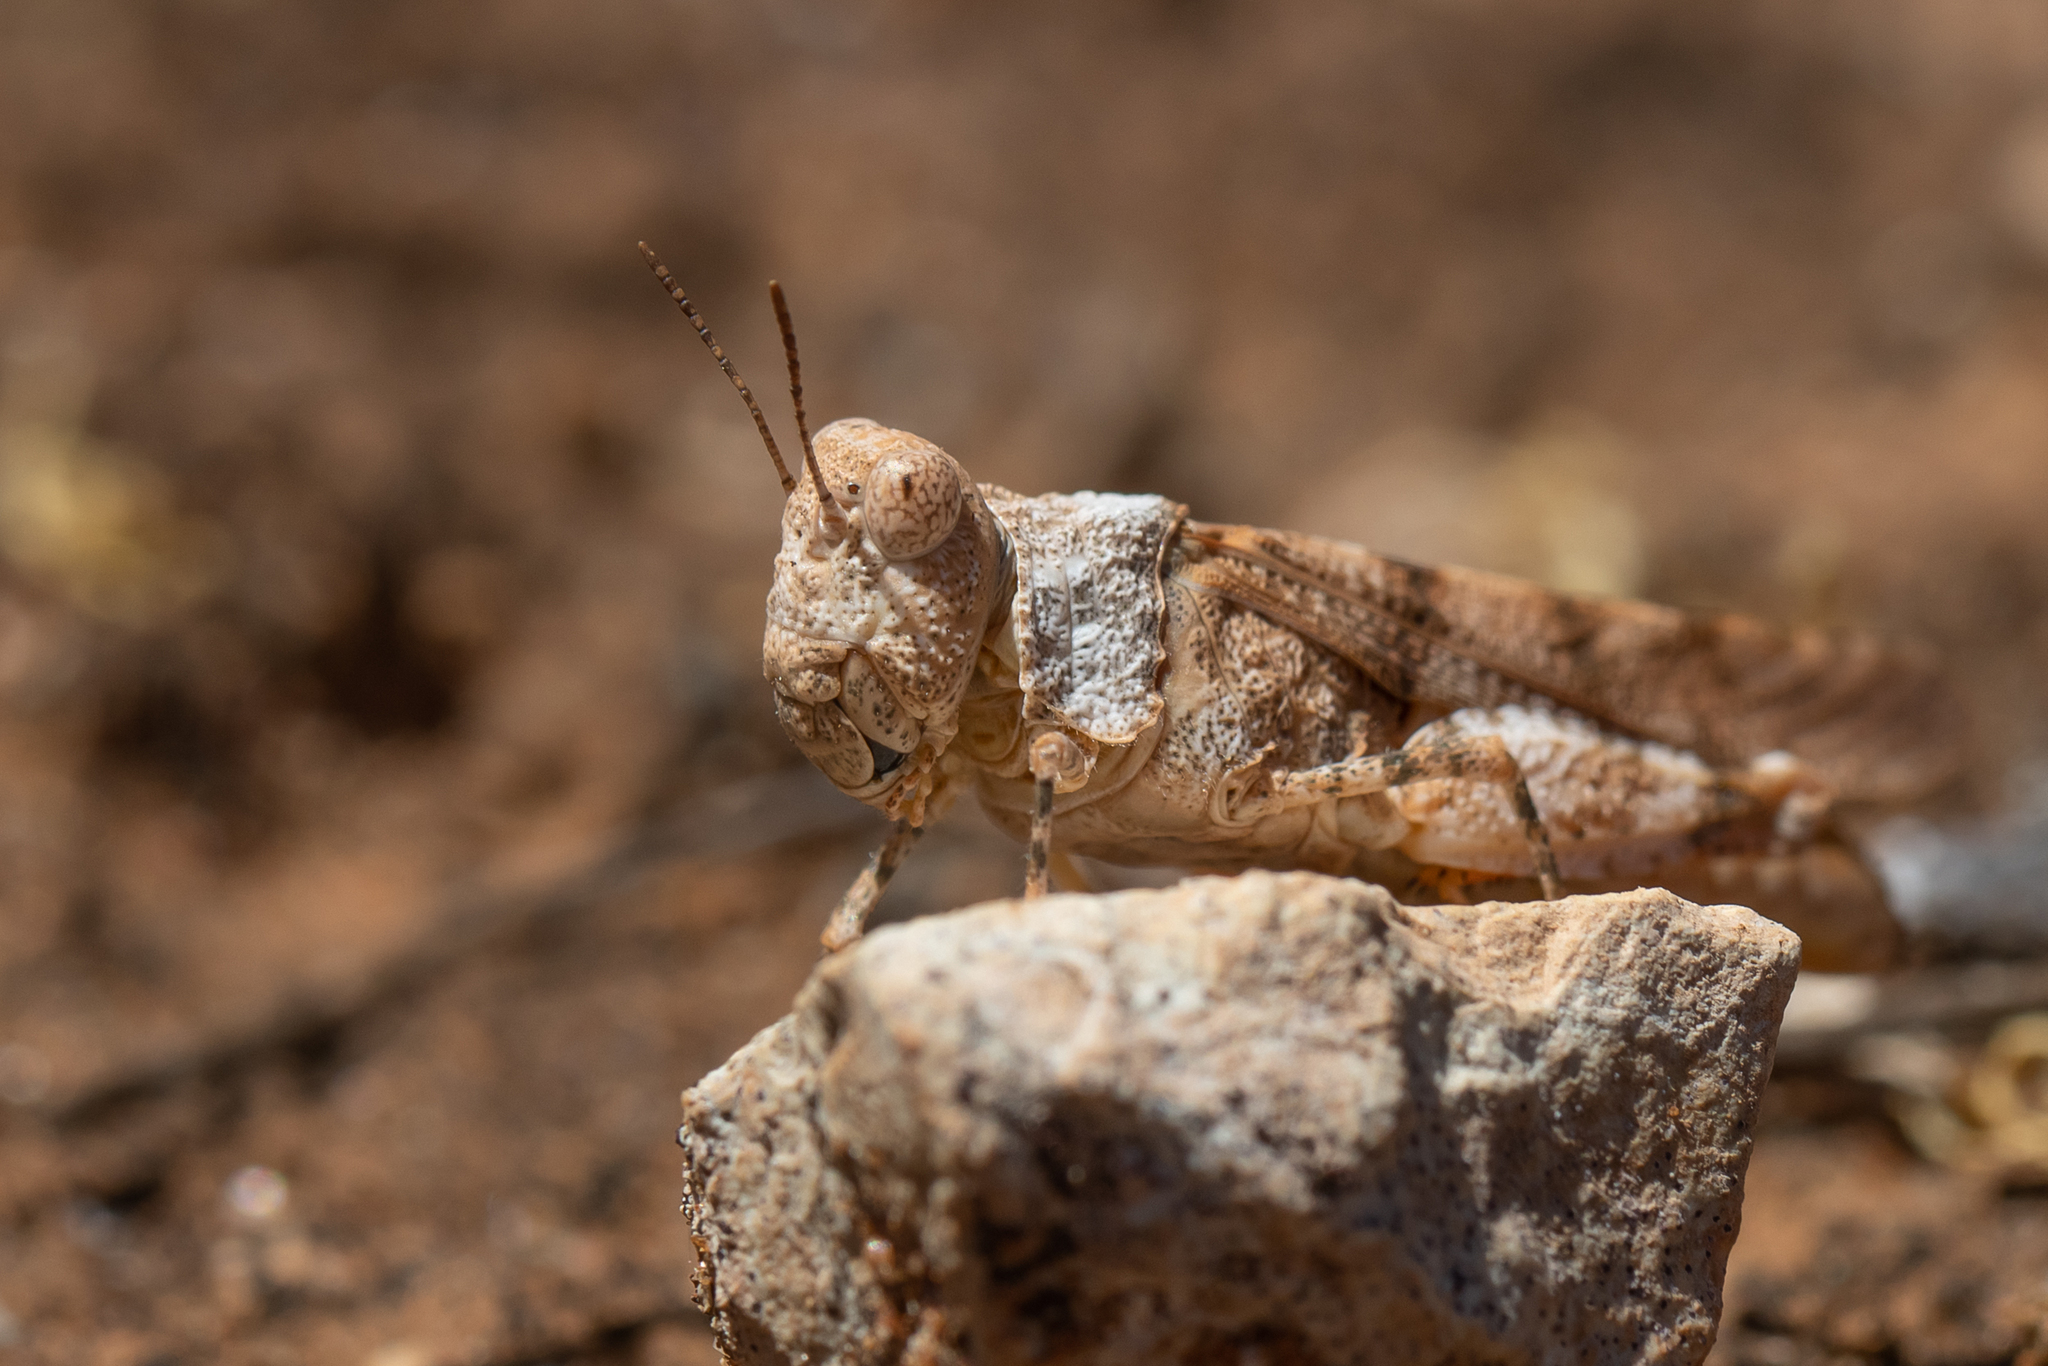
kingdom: Animalia
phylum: Arthropoda
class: Insecta
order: Orthoptera
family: Acrididae
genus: Qualetta
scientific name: Qualetta maculata
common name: Spotted bandwing
